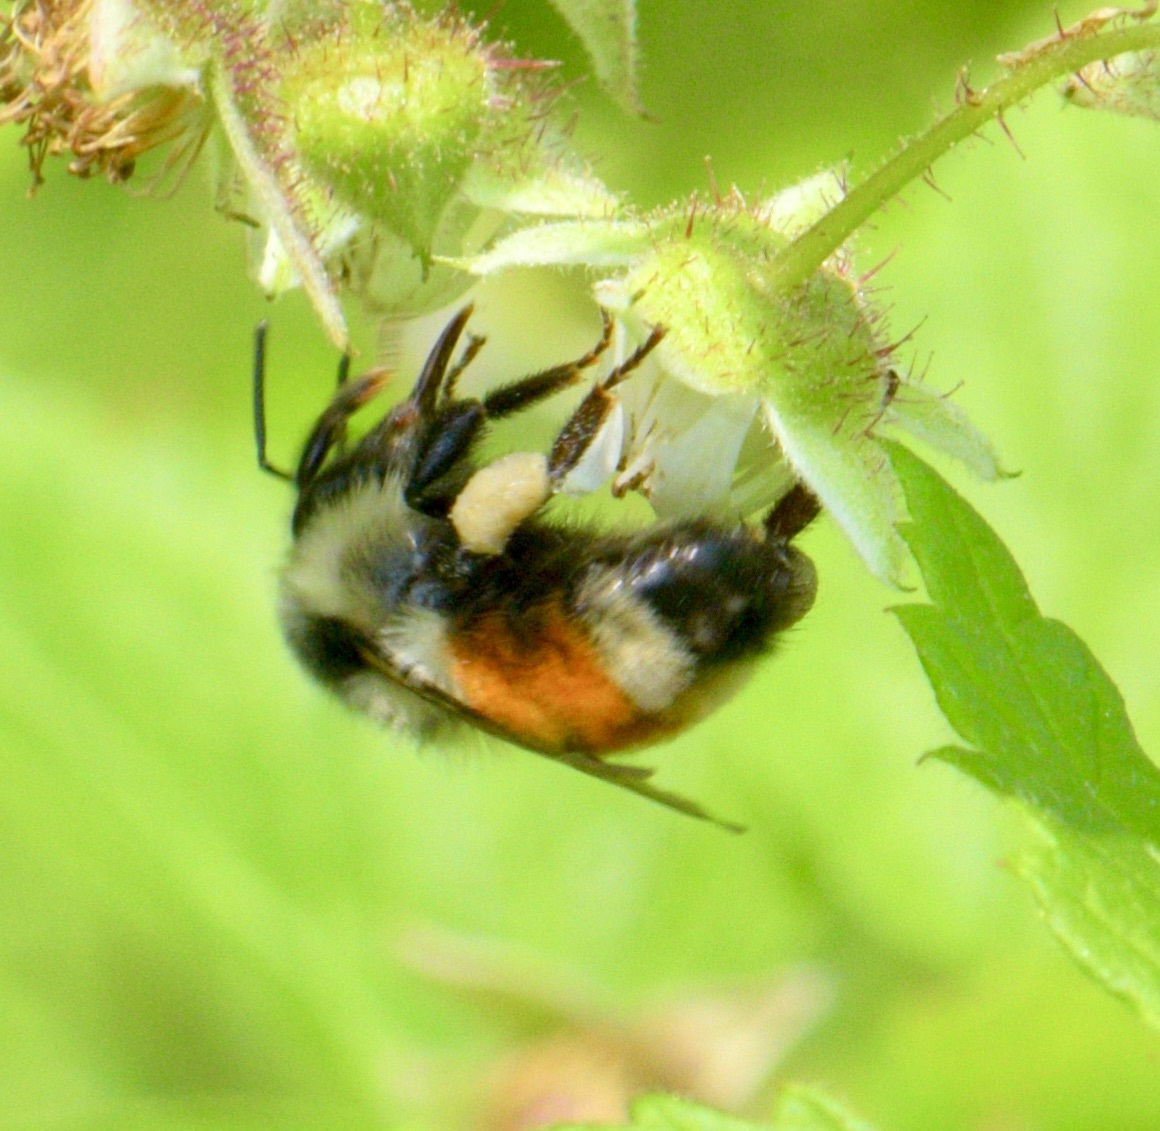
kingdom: Animalia
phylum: Arthropoda
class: Insecta
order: Hymenoptera
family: Apidae
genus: Bombus
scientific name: Bombus ternarius
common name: Tri-colored bumble bee
